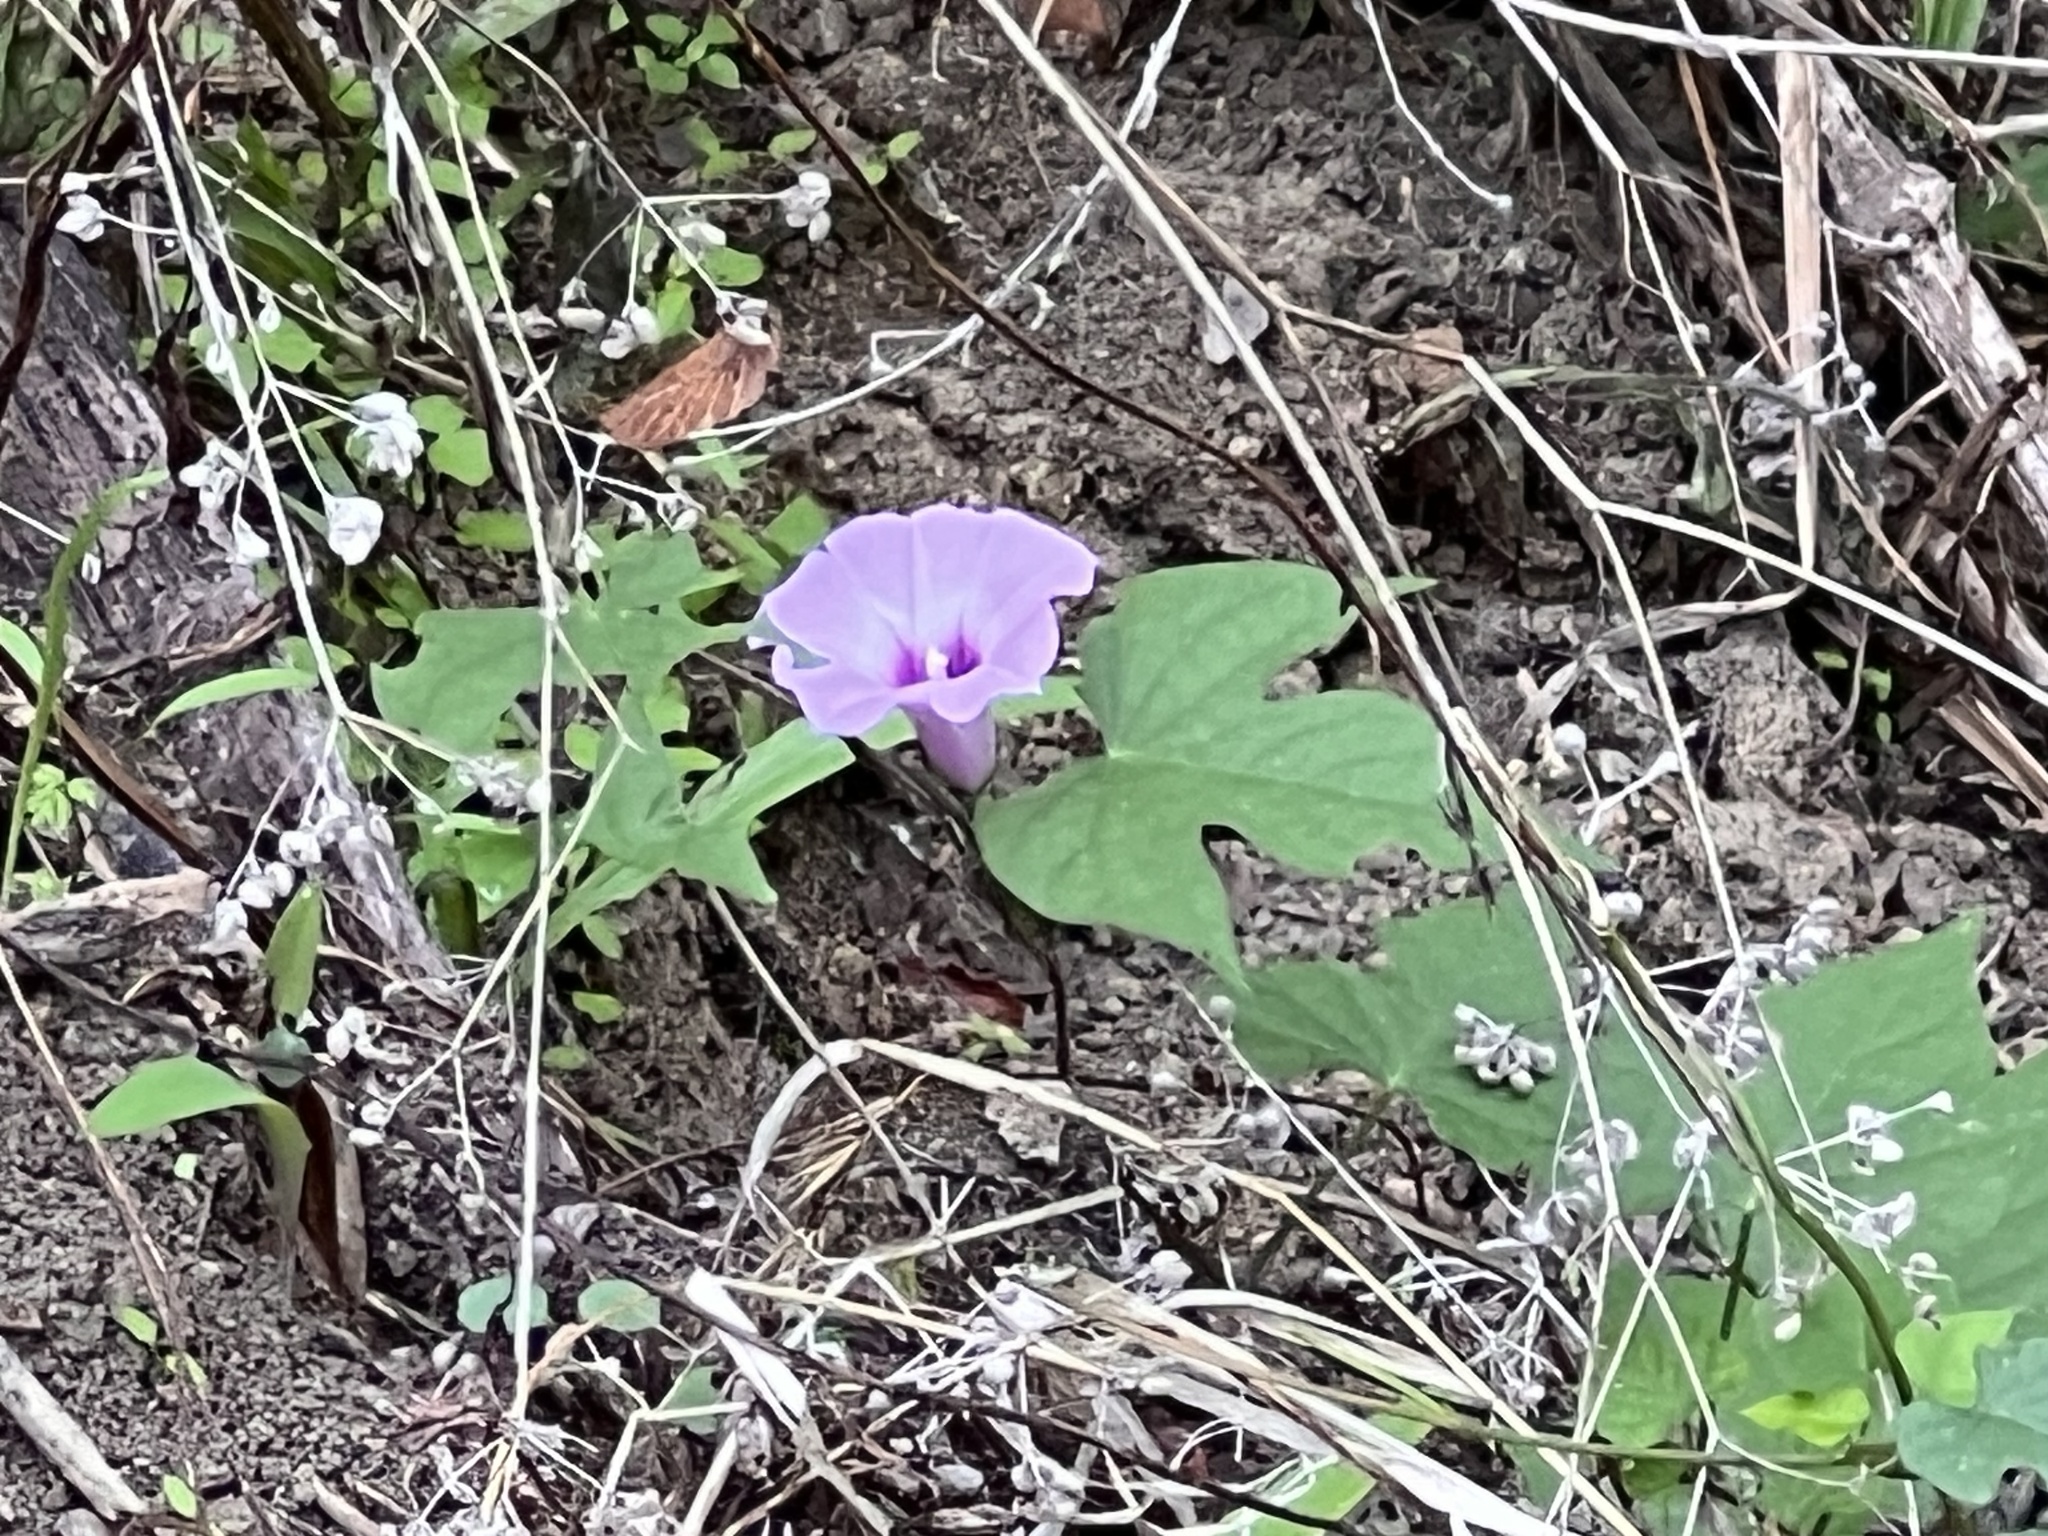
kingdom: Plantae
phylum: Tracheophyta
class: Magnoliopsida
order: Solanales
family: Convolvulaceae
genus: Ipomoea
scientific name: Ipomoea cordatotriloba
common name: Cotton morning glory
